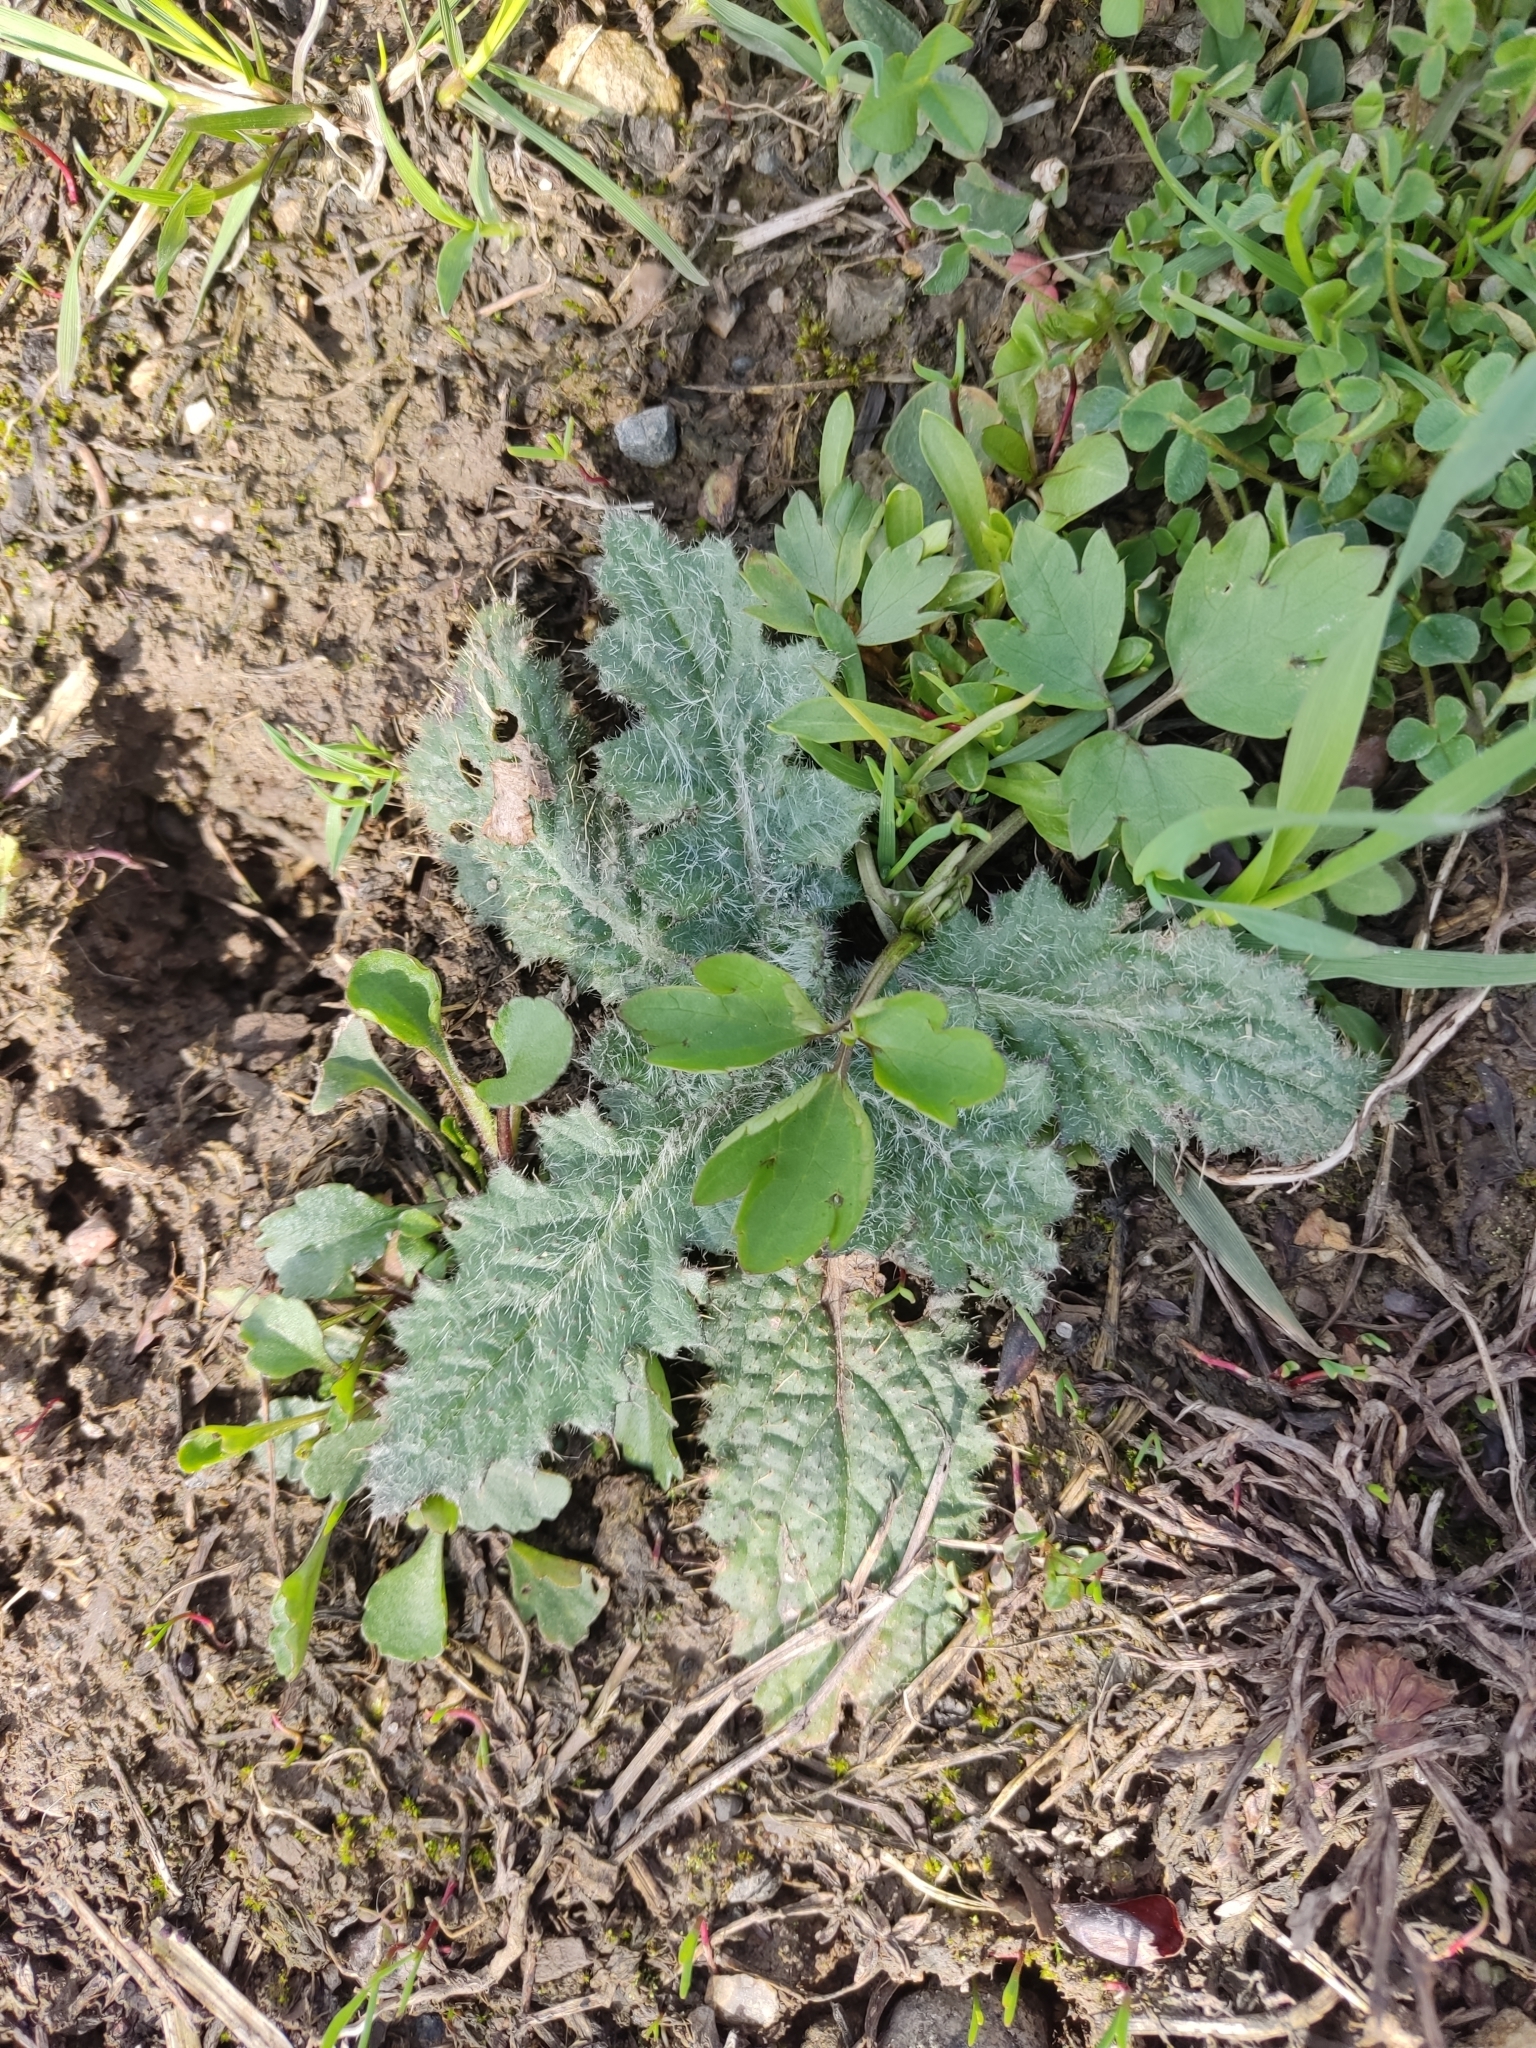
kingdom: Plantae
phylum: Tracheophyta
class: Magnoliopsida
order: Asterales
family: Asteraceae
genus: Cirsium
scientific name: Cirsium vulgare
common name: Bull thistle
